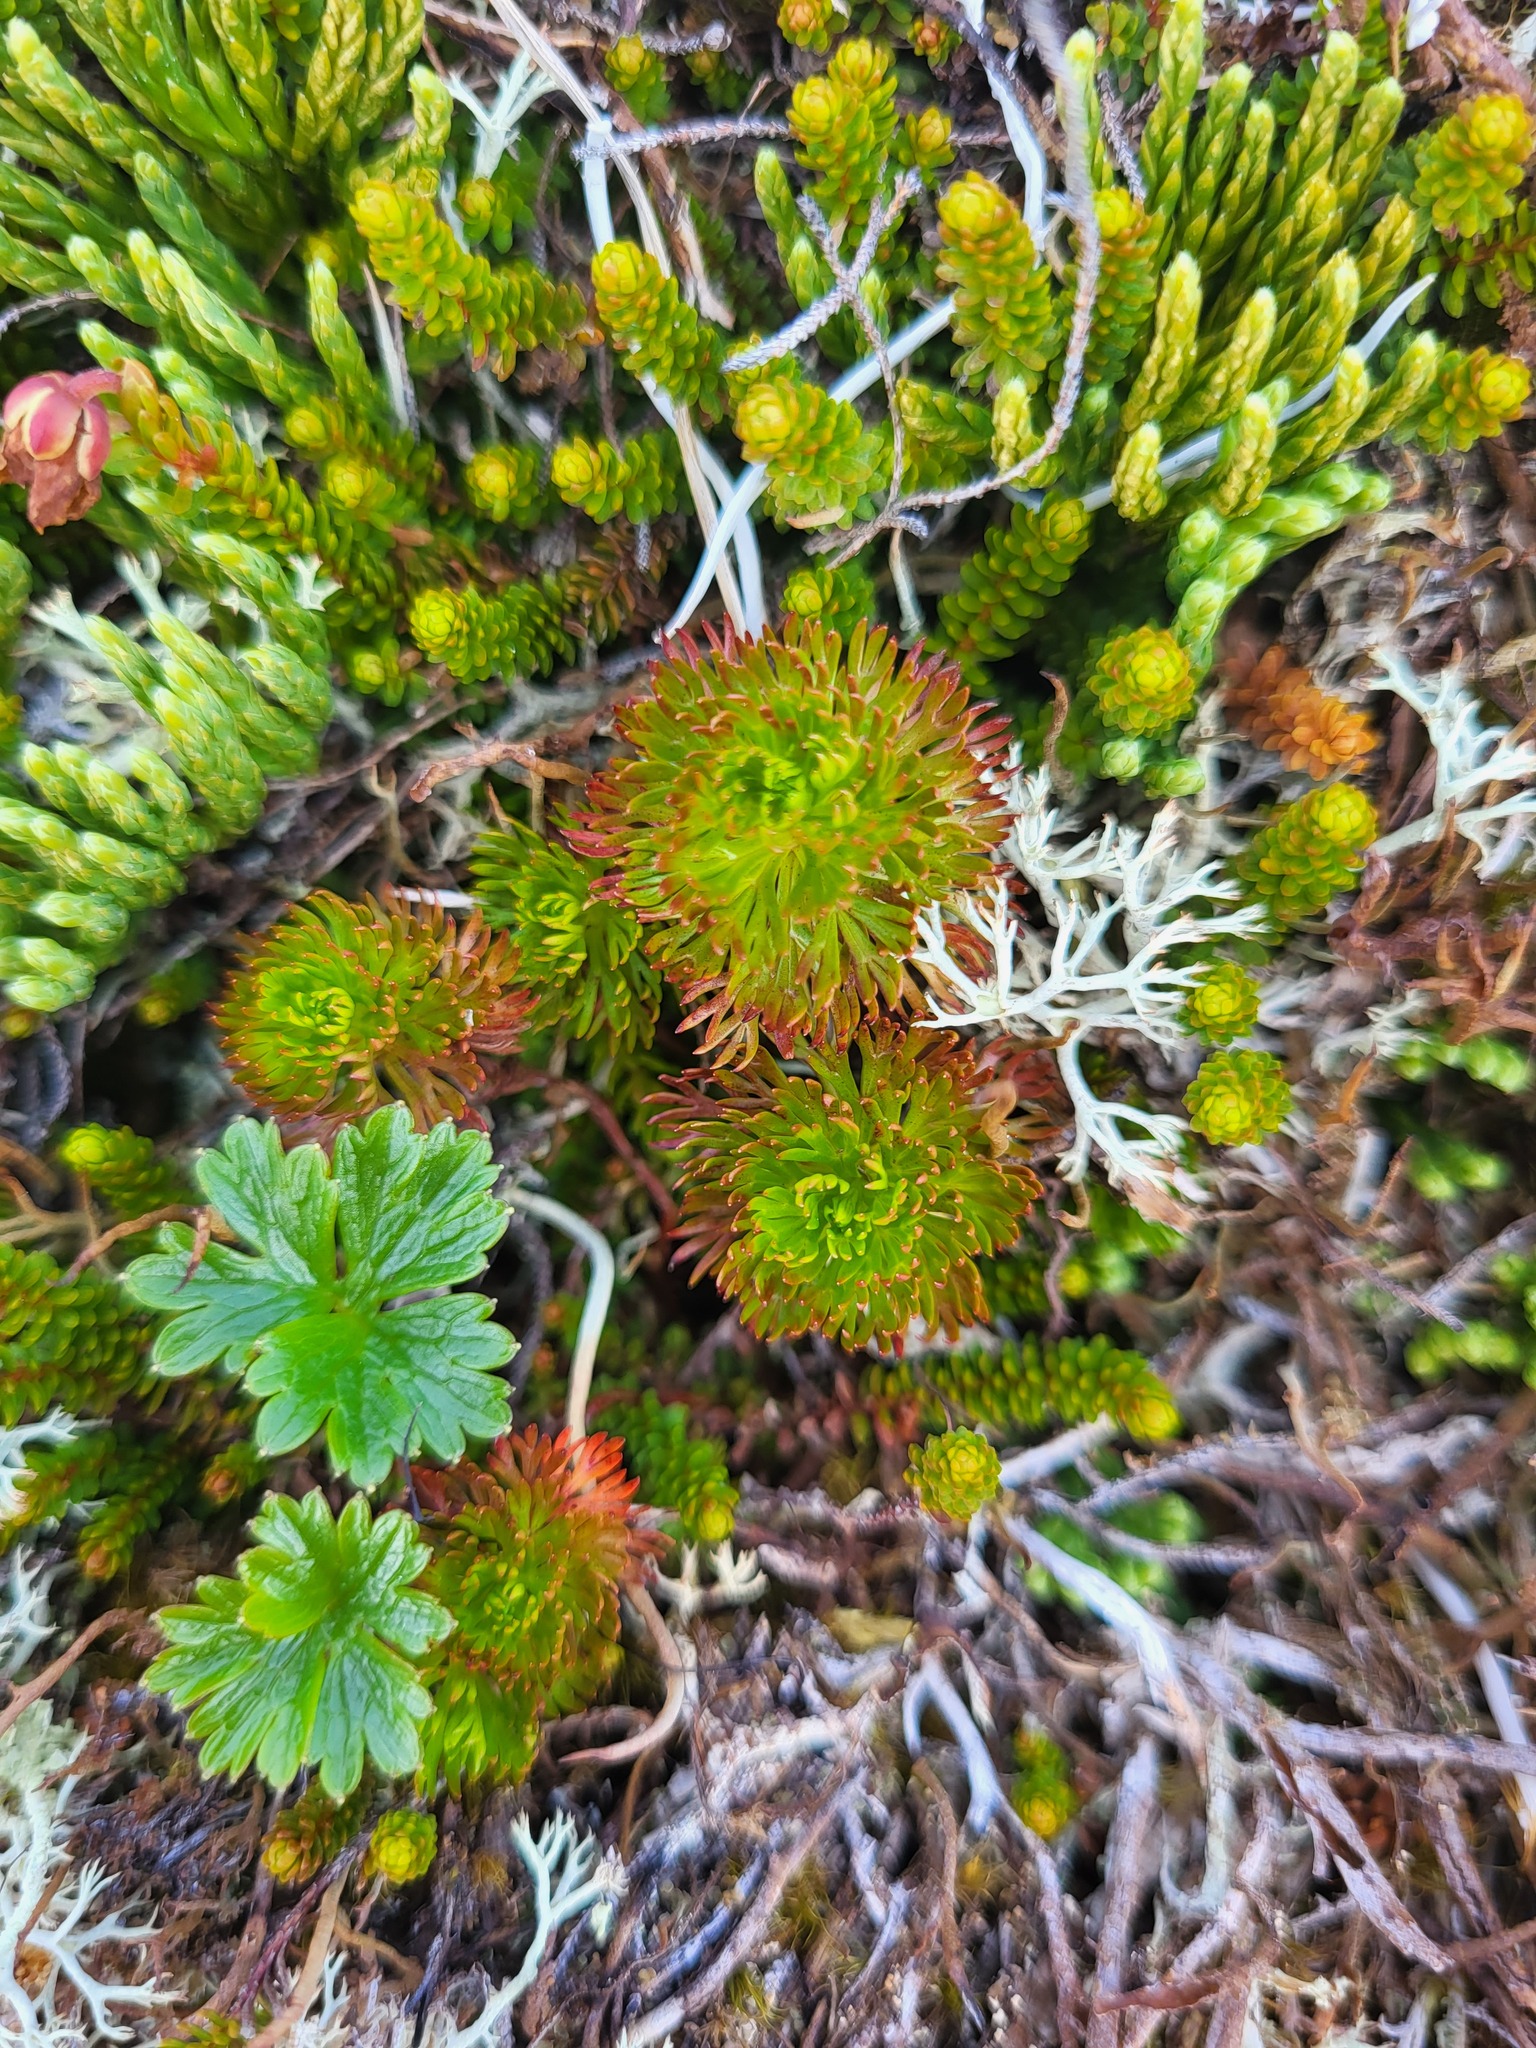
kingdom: Plantae
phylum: Tracheophyta
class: Magnoliopsida
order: Rosales
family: Rosaceae
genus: Luetkea
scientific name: Luetkea pectinata
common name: Partridgefoot
